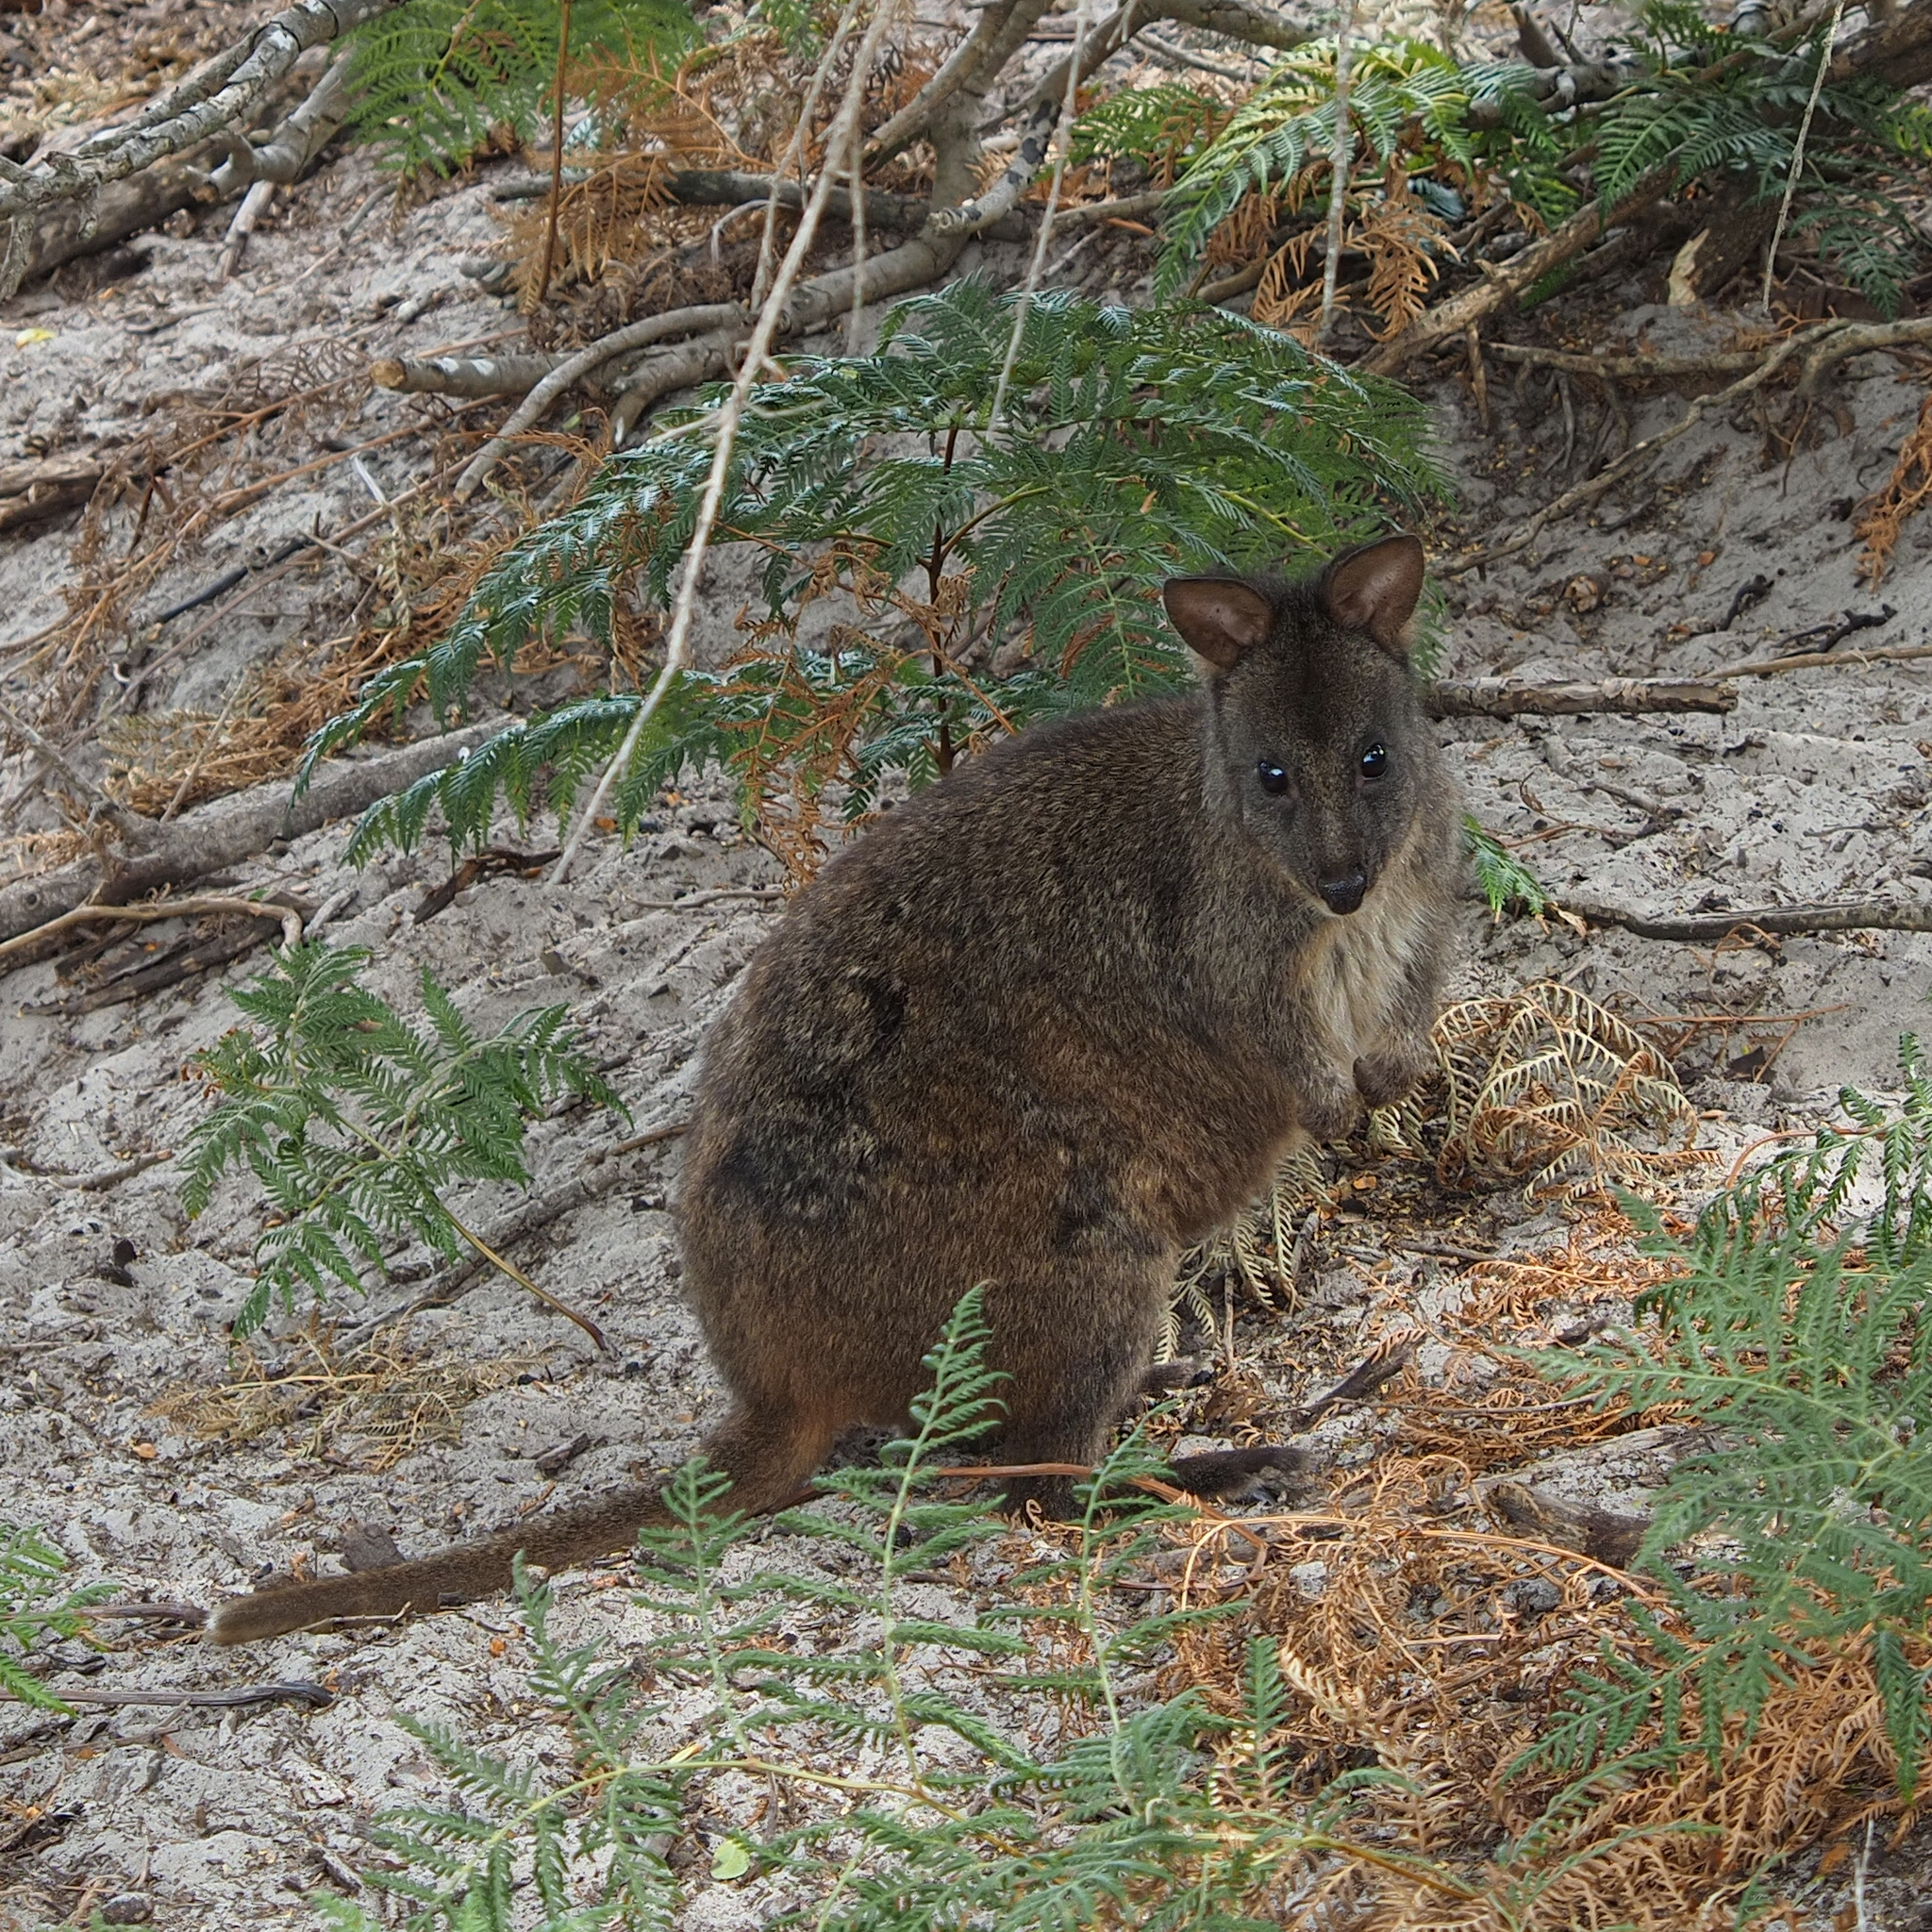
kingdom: Animalia
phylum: Chordata
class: Mammalia
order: Diprotodontia
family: Macropodidae
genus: Thylogale
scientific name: Thylogale billardierii
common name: Tasmanian pademelon
